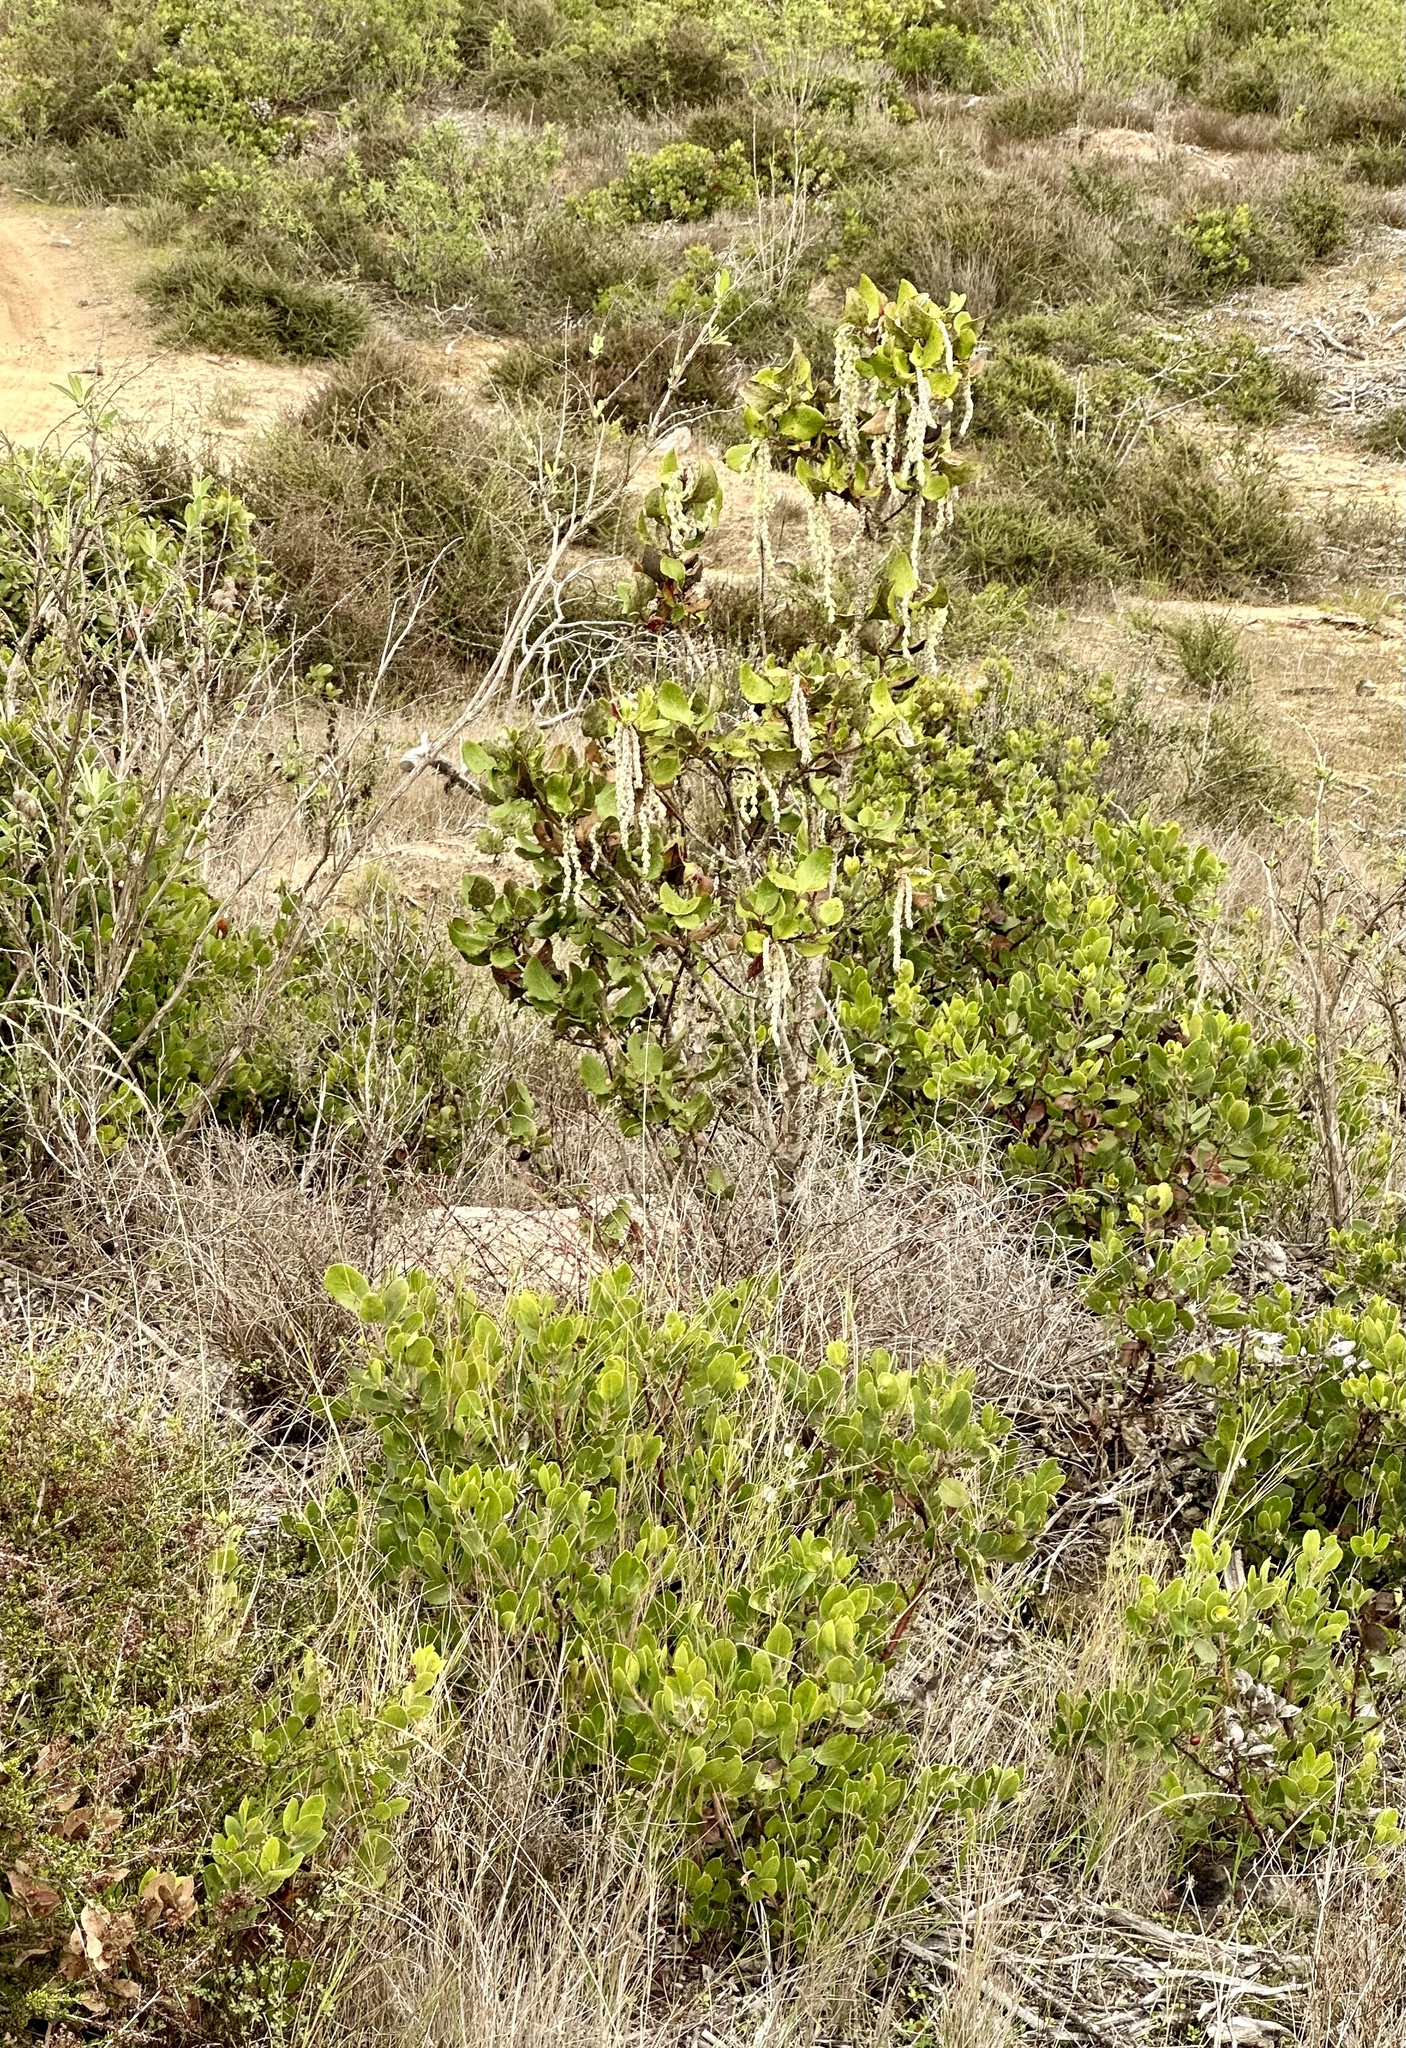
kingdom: Plantae
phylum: Tracheophyta
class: Magnoliopsida
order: Garryales
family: Garryaceae
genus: Garrya
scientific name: Garrya elliptica
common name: Silk-tassel
